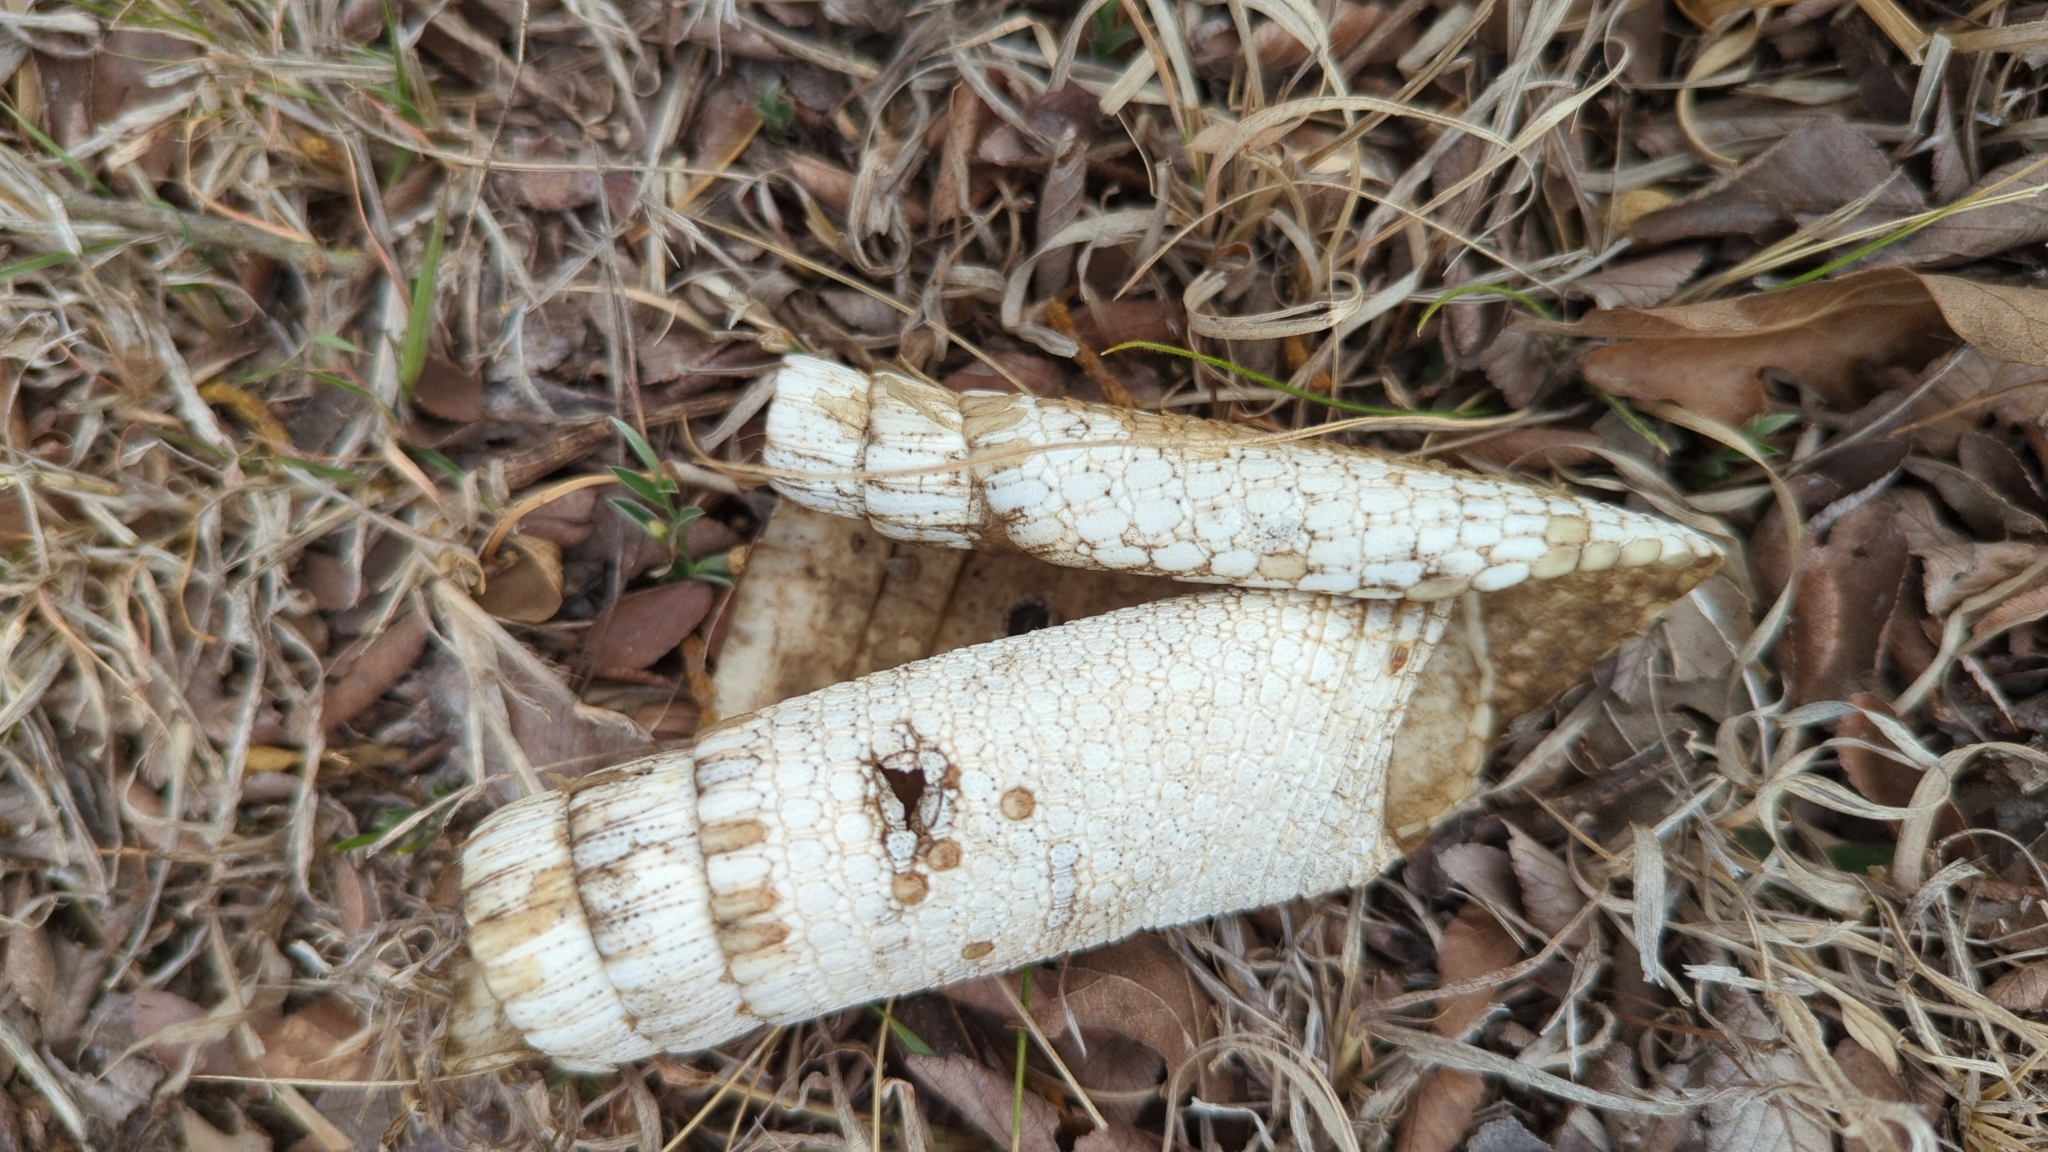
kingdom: Animalia
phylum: Chordata
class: Mammalia
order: Cingulata
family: Dasypodidae
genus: Dasypus
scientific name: Dasypus novemcinctus
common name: Nine-banded armadillo
